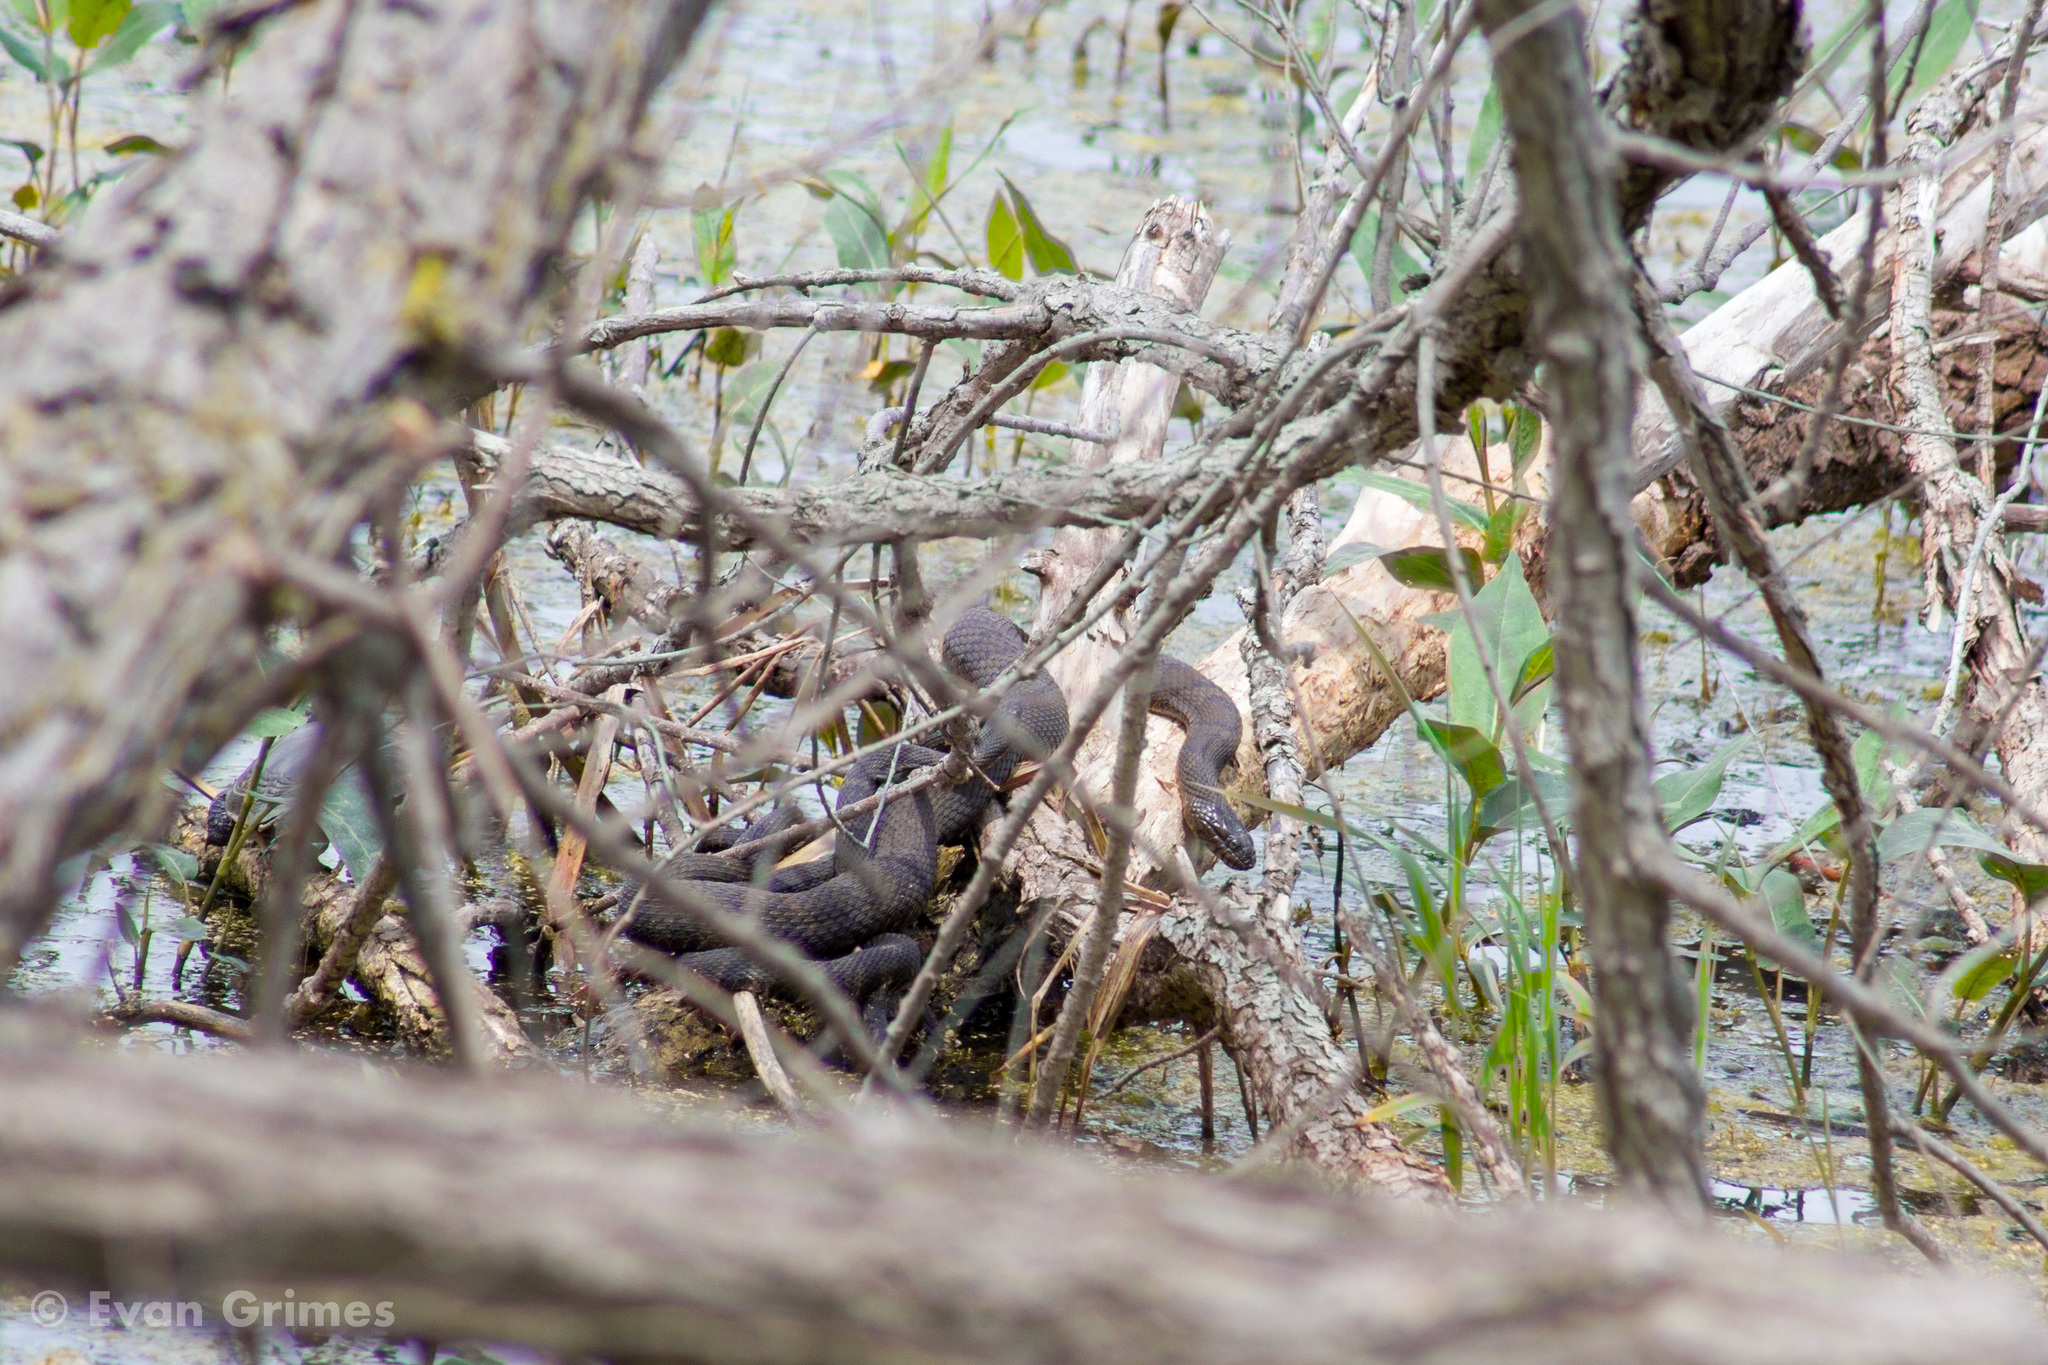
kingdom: Animalia
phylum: Chordata
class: Squamata
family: Colubridae
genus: Nerodia
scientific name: Nerodia sipedon
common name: Northern water snake
